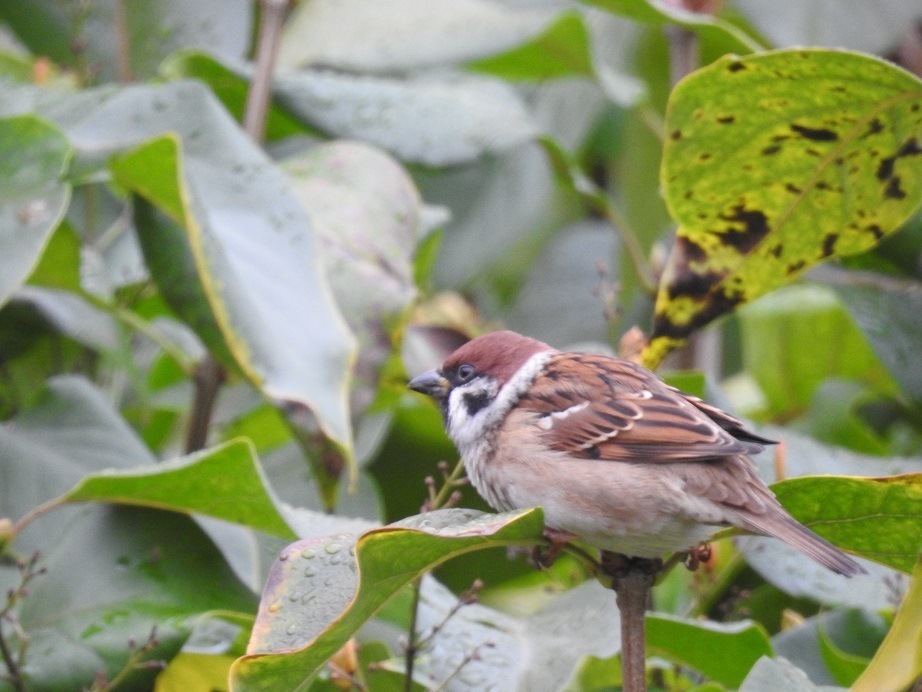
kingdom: Animalia
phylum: Chordata
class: Aves
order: Passeriformes
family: Passeridae
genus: Passer
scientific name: Passer montanus
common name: Eurasian tree sparrow
